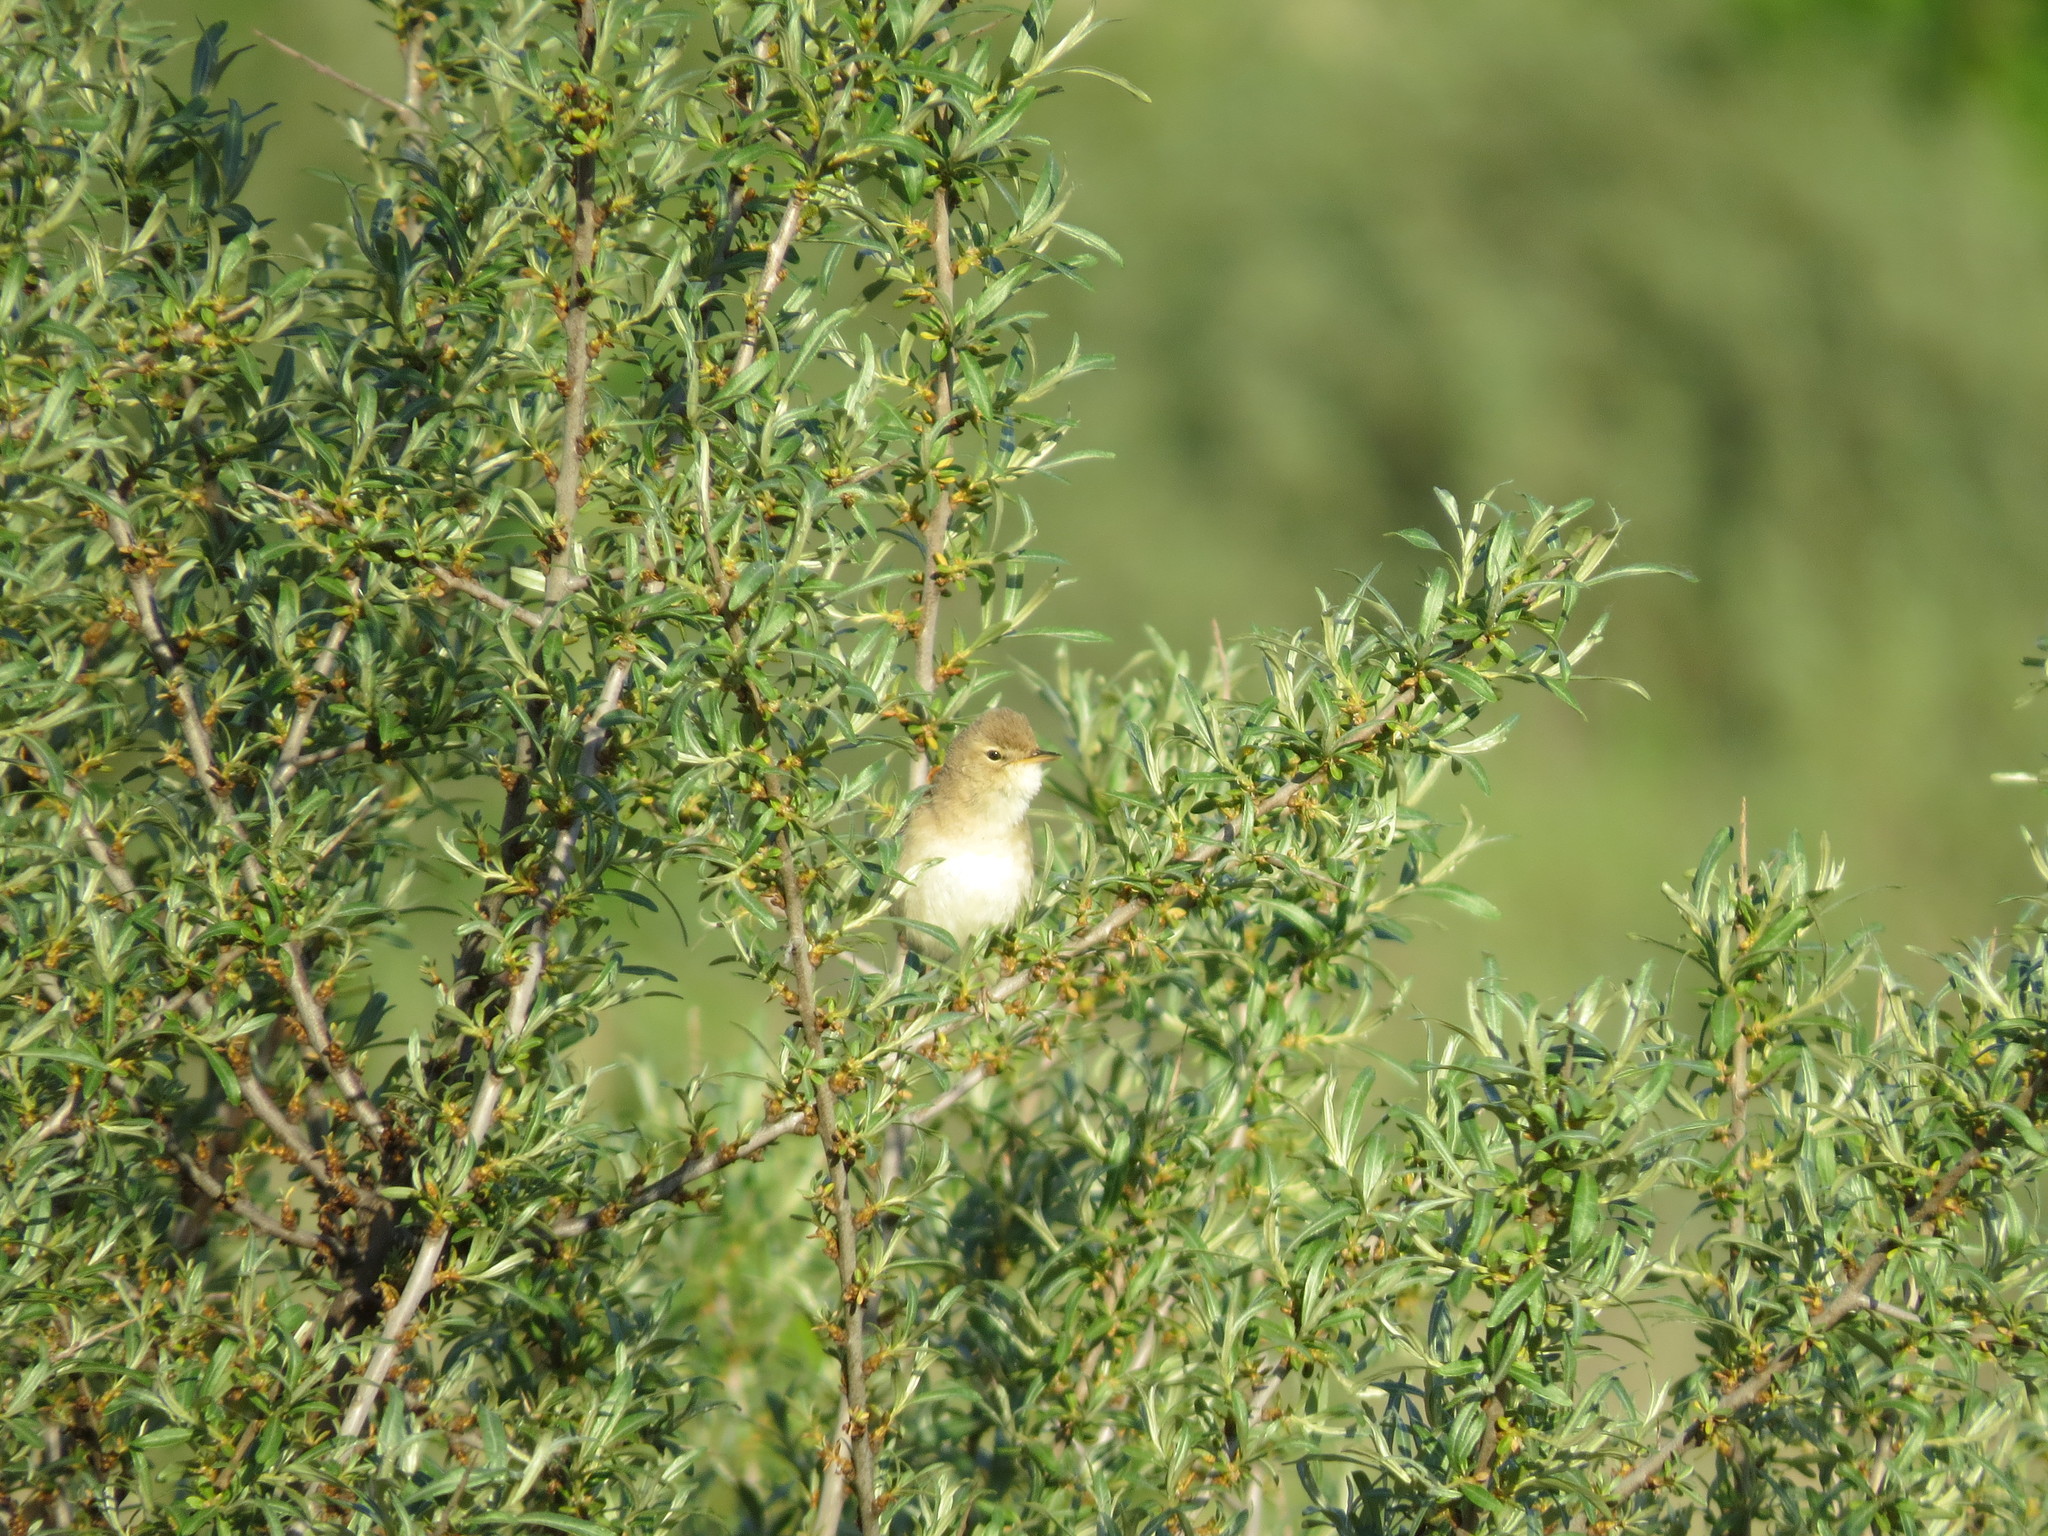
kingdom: Animalia
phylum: Chordata
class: Aves
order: Passeriformes
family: Acrocephalidae
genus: Iduna
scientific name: Iduna caligata
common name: Booted warbler
